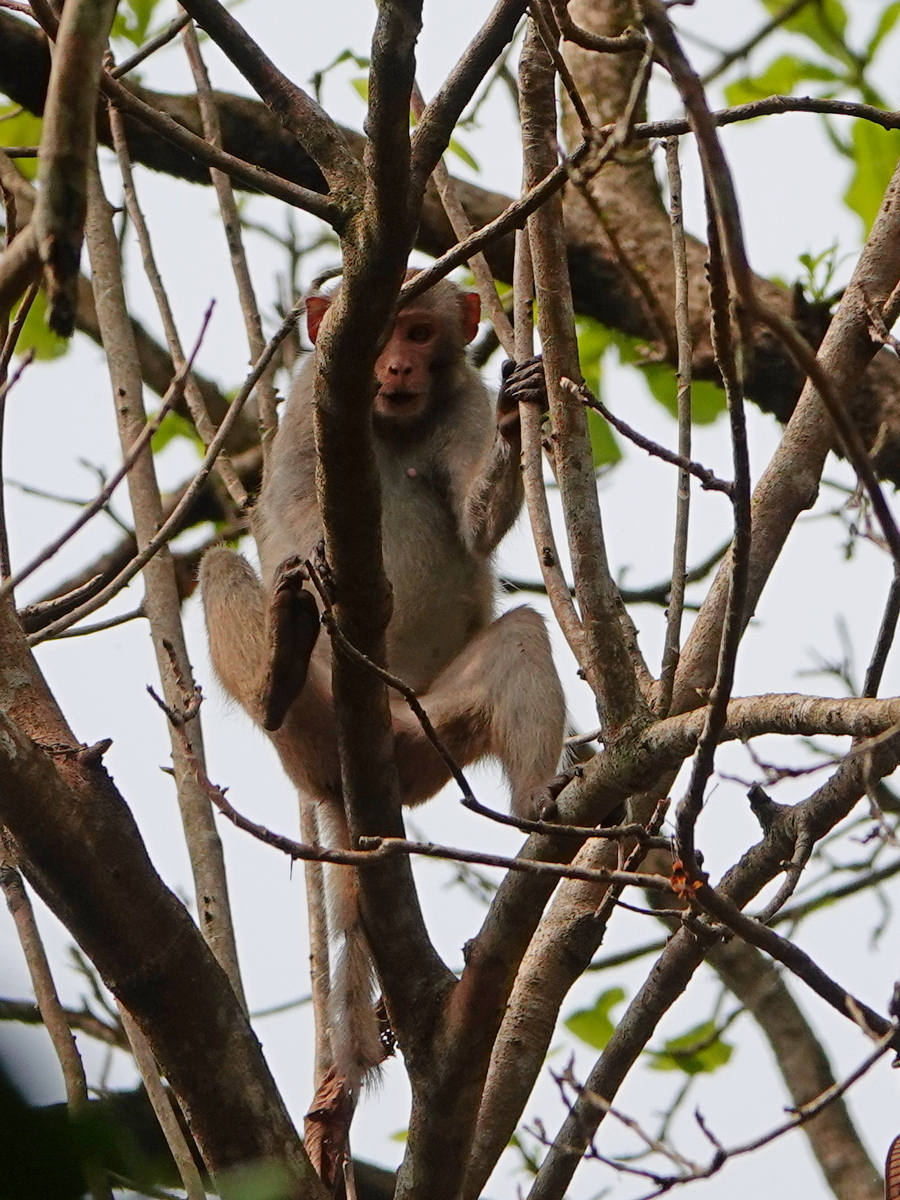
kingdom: Animalia
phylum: Chordata
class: Mammalia
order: Primates
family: Cercopithecidae
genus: Macaca
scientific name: Macaca mulatta
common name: Rhesus monkey
